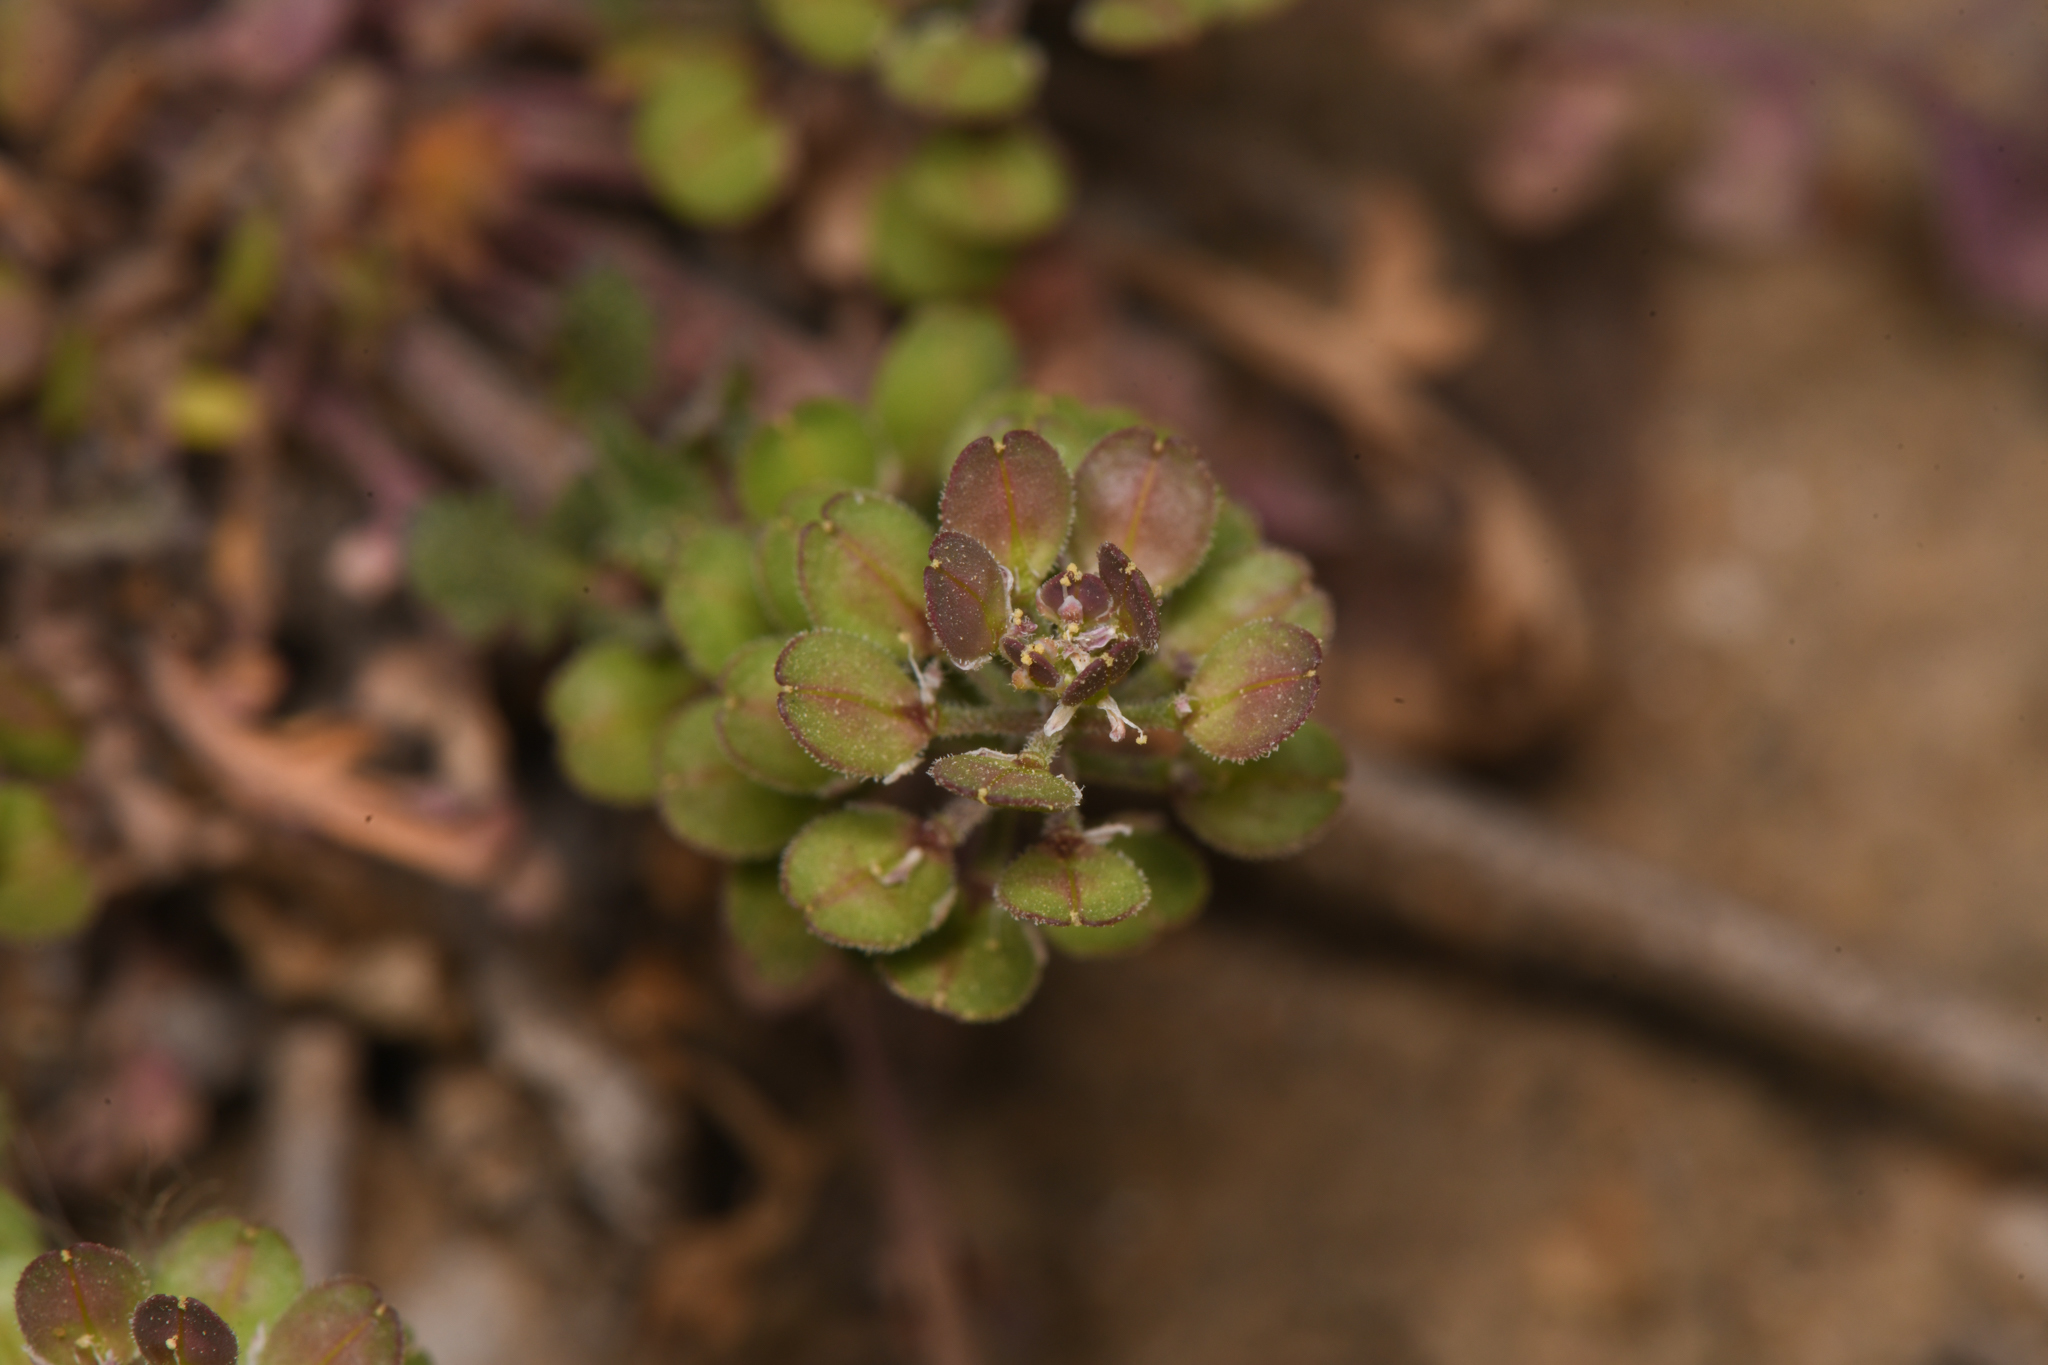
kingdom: Plantae
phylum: Tracheophyta
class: Magnoliopsida
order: Brassicales
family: Brassicaceae
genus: Lepidium
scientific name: Lepidium lasiocarpum
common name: Hairy-pod pepperwort
